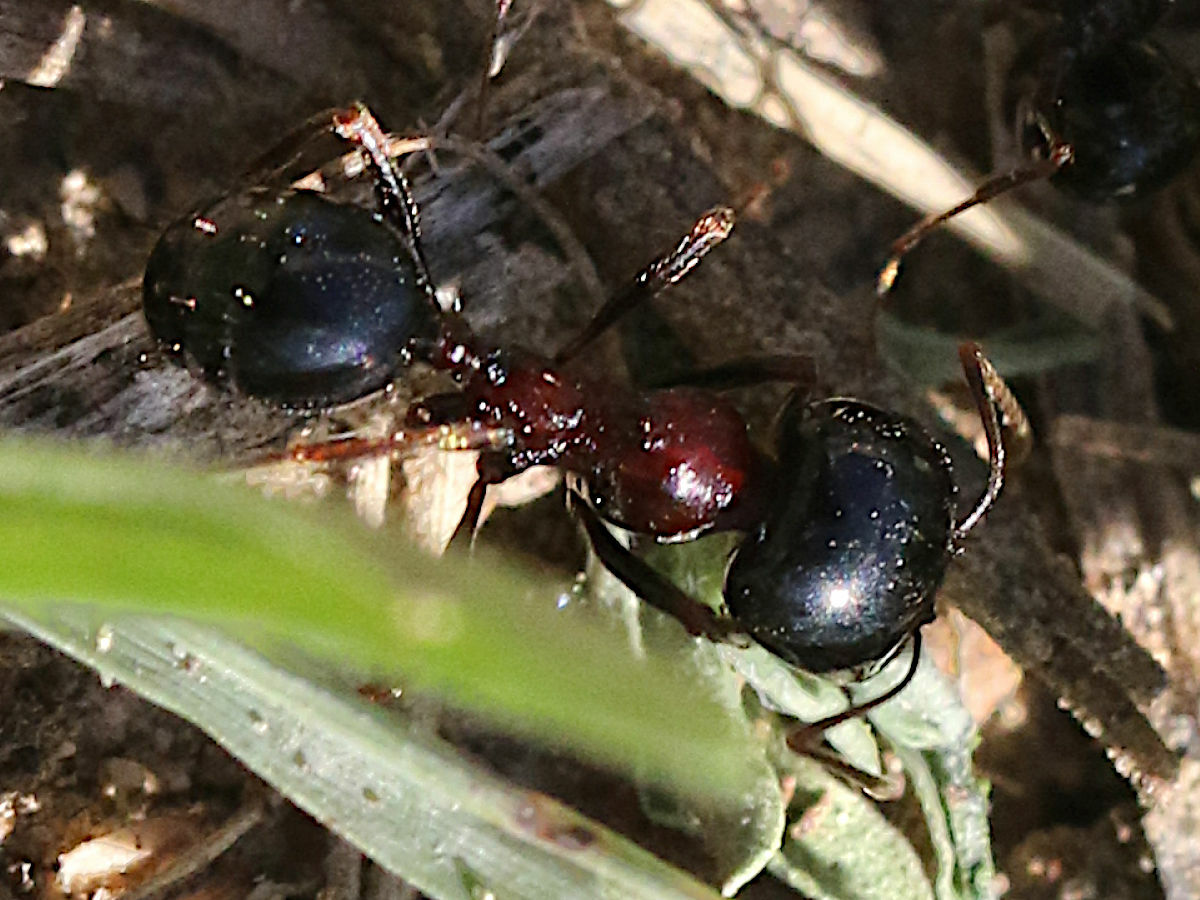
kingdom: Animalia
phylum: Arthropoda
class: Insecta
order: Hymenoptera
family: Formicidae
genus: Messor
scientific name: Messor wasmanni
